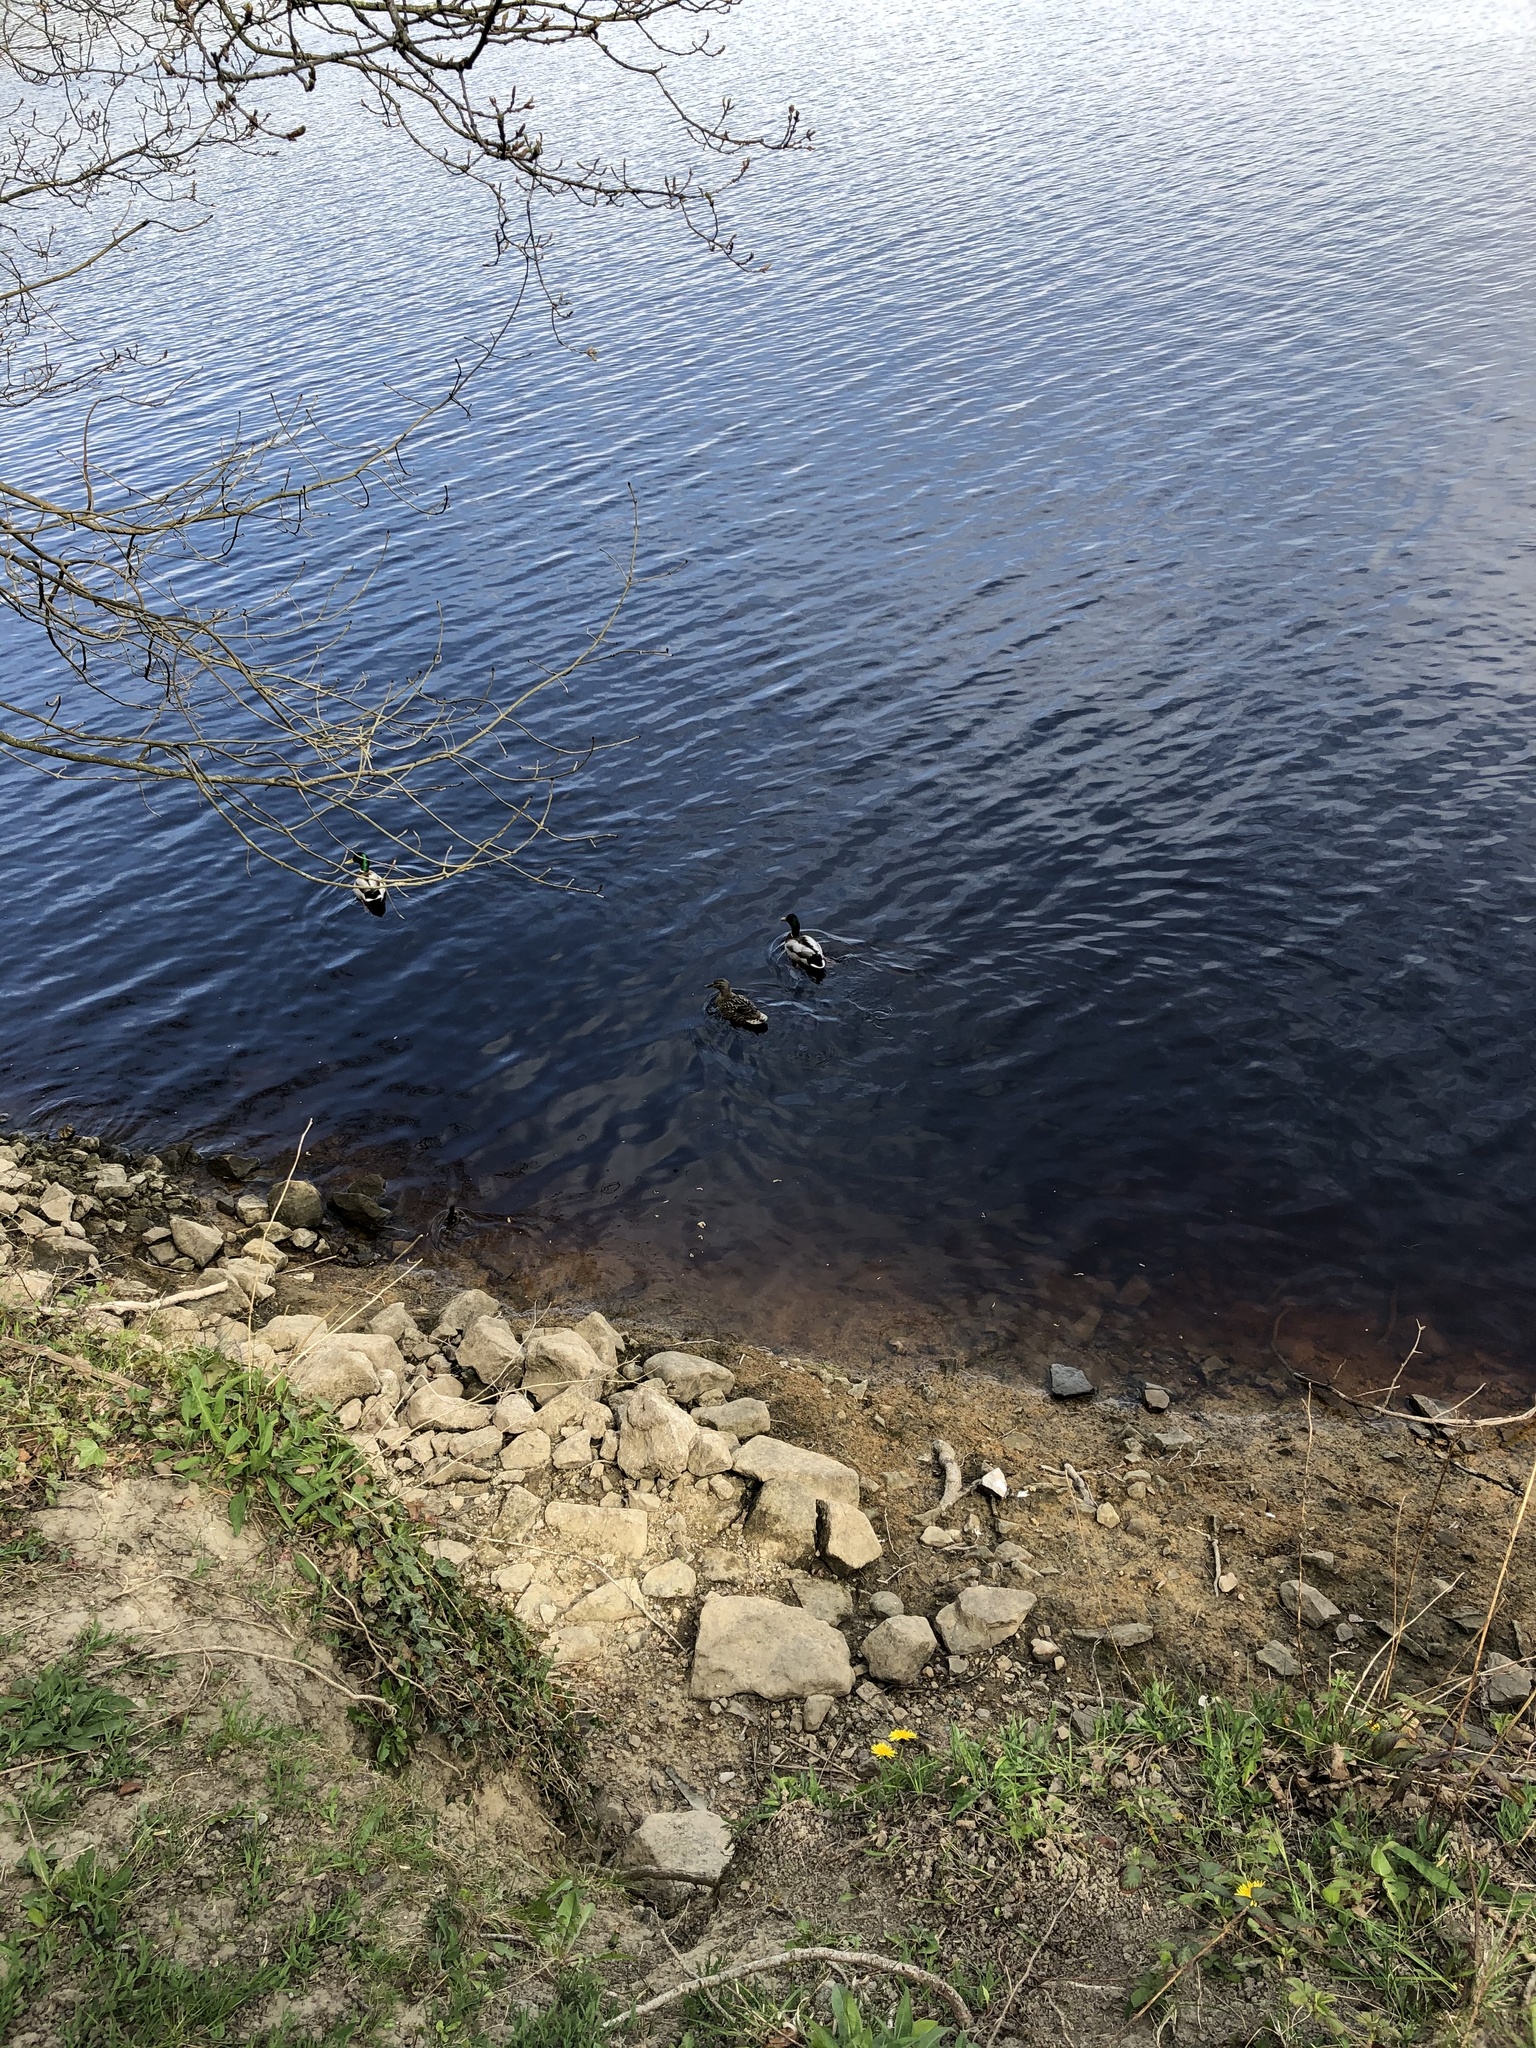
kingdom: Animalia
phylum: Chordata
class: Aves
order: Anseriformes
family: Anatidae
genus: Anas
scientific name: Anas platyrhynchos
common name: Mallard
